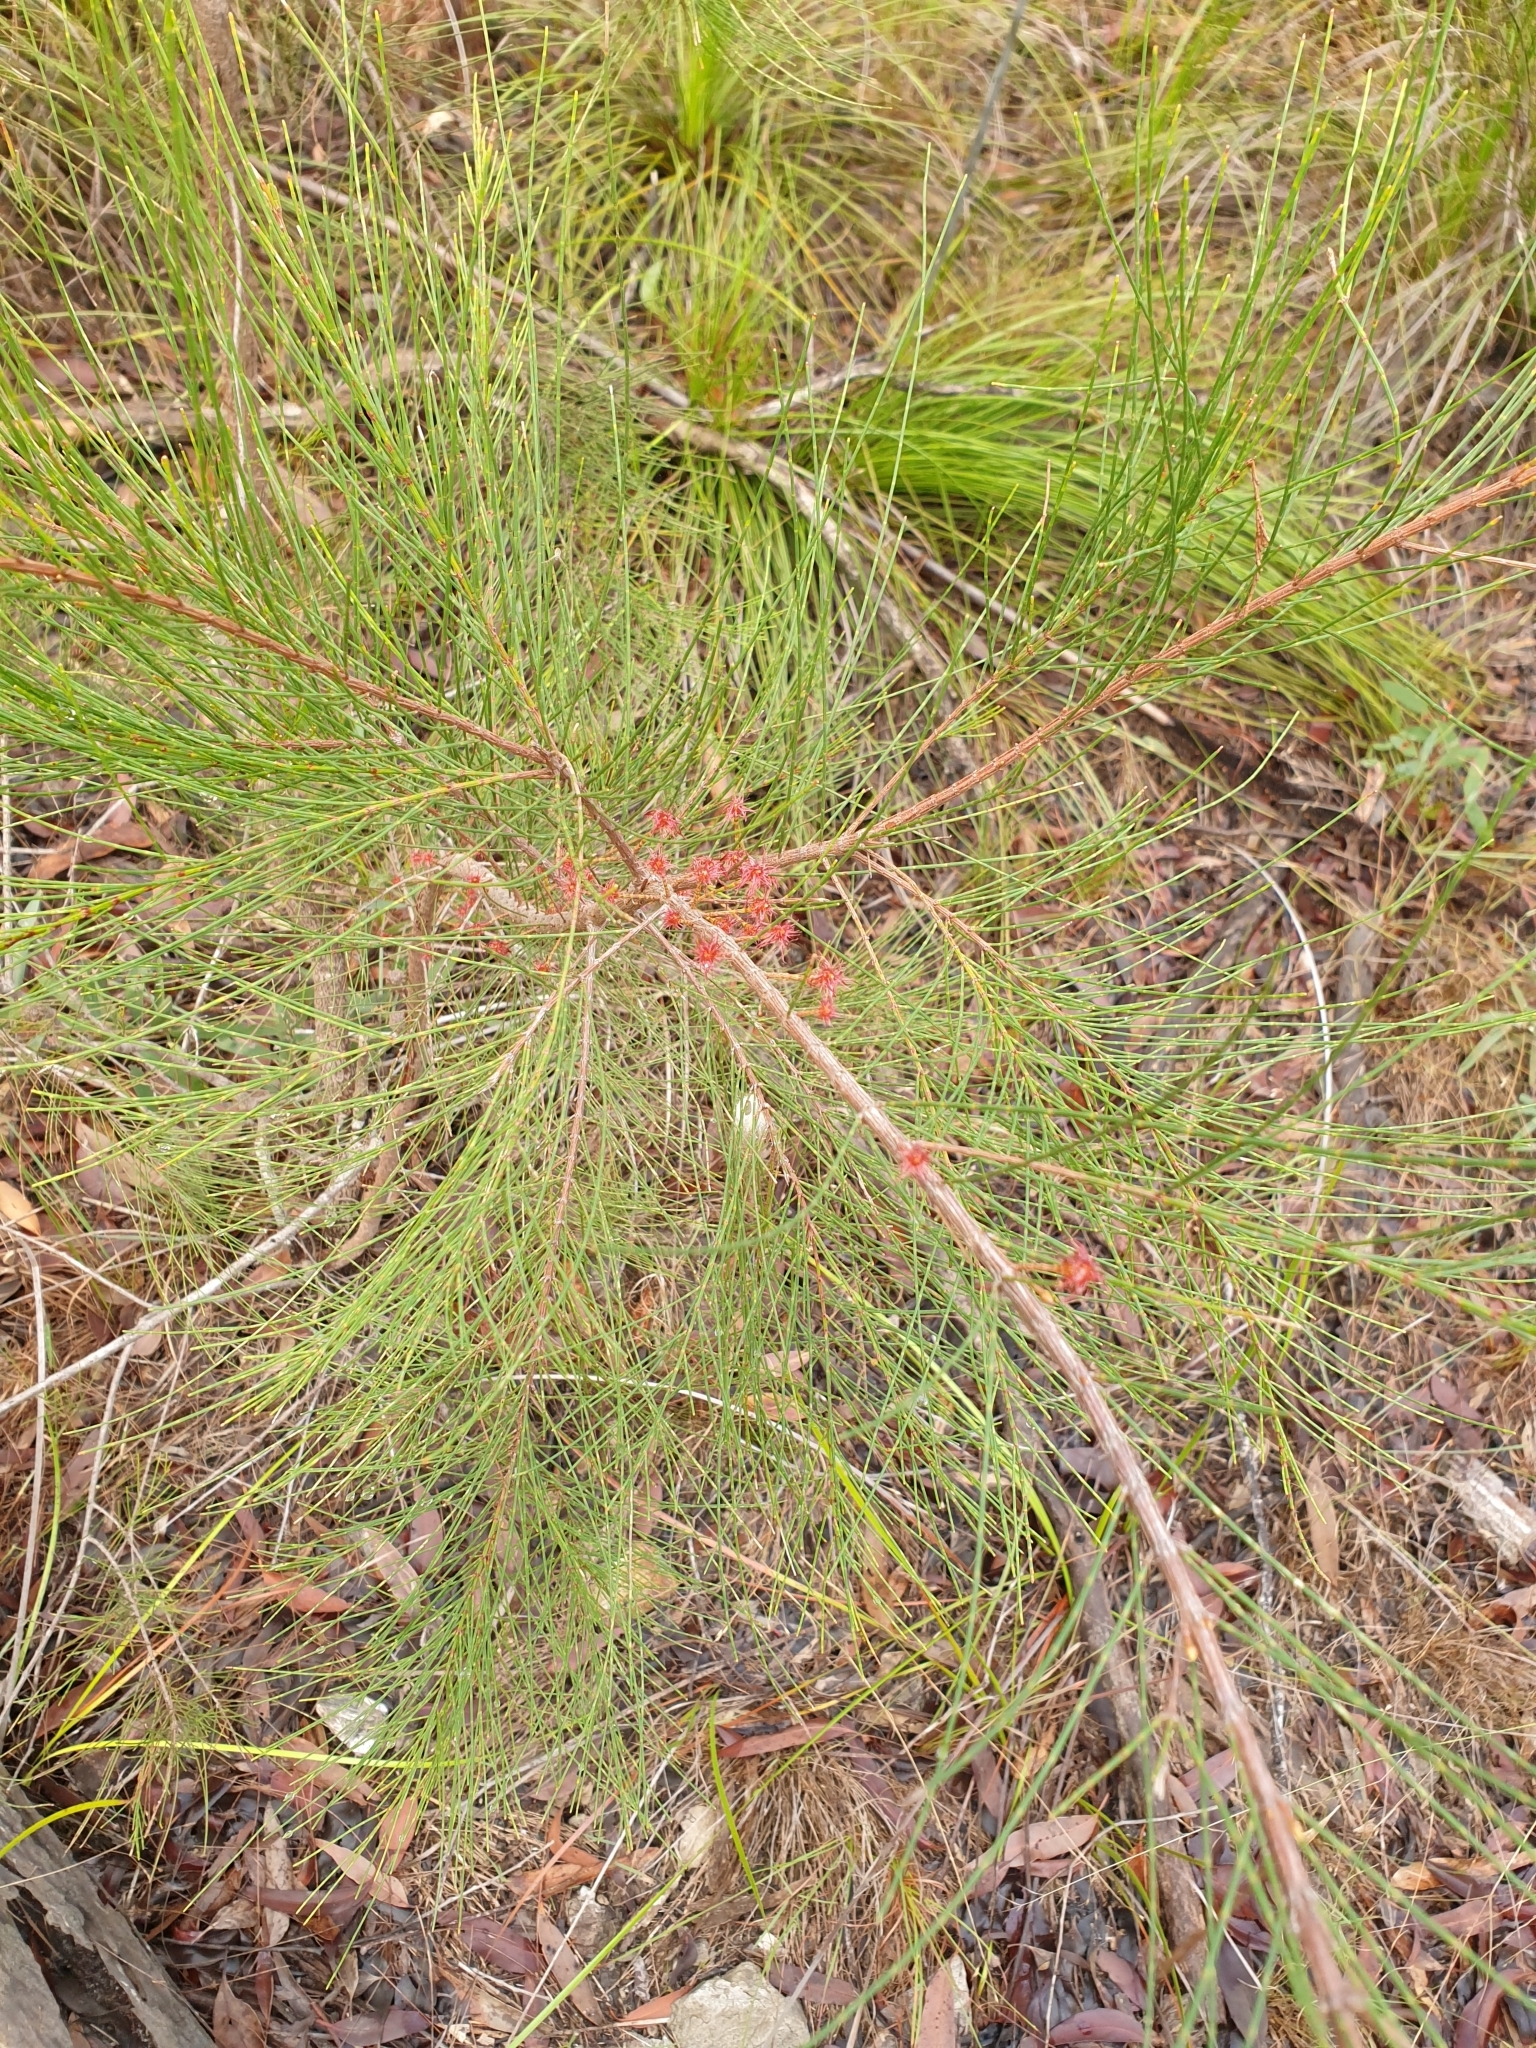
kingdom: Plantae
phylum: Tracheophyta
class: Magnoliopsida
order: Fagales
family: Casuarinaceae
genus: Allocasuarina
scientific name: Allocasuarina littoralis
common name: Black she-oak
